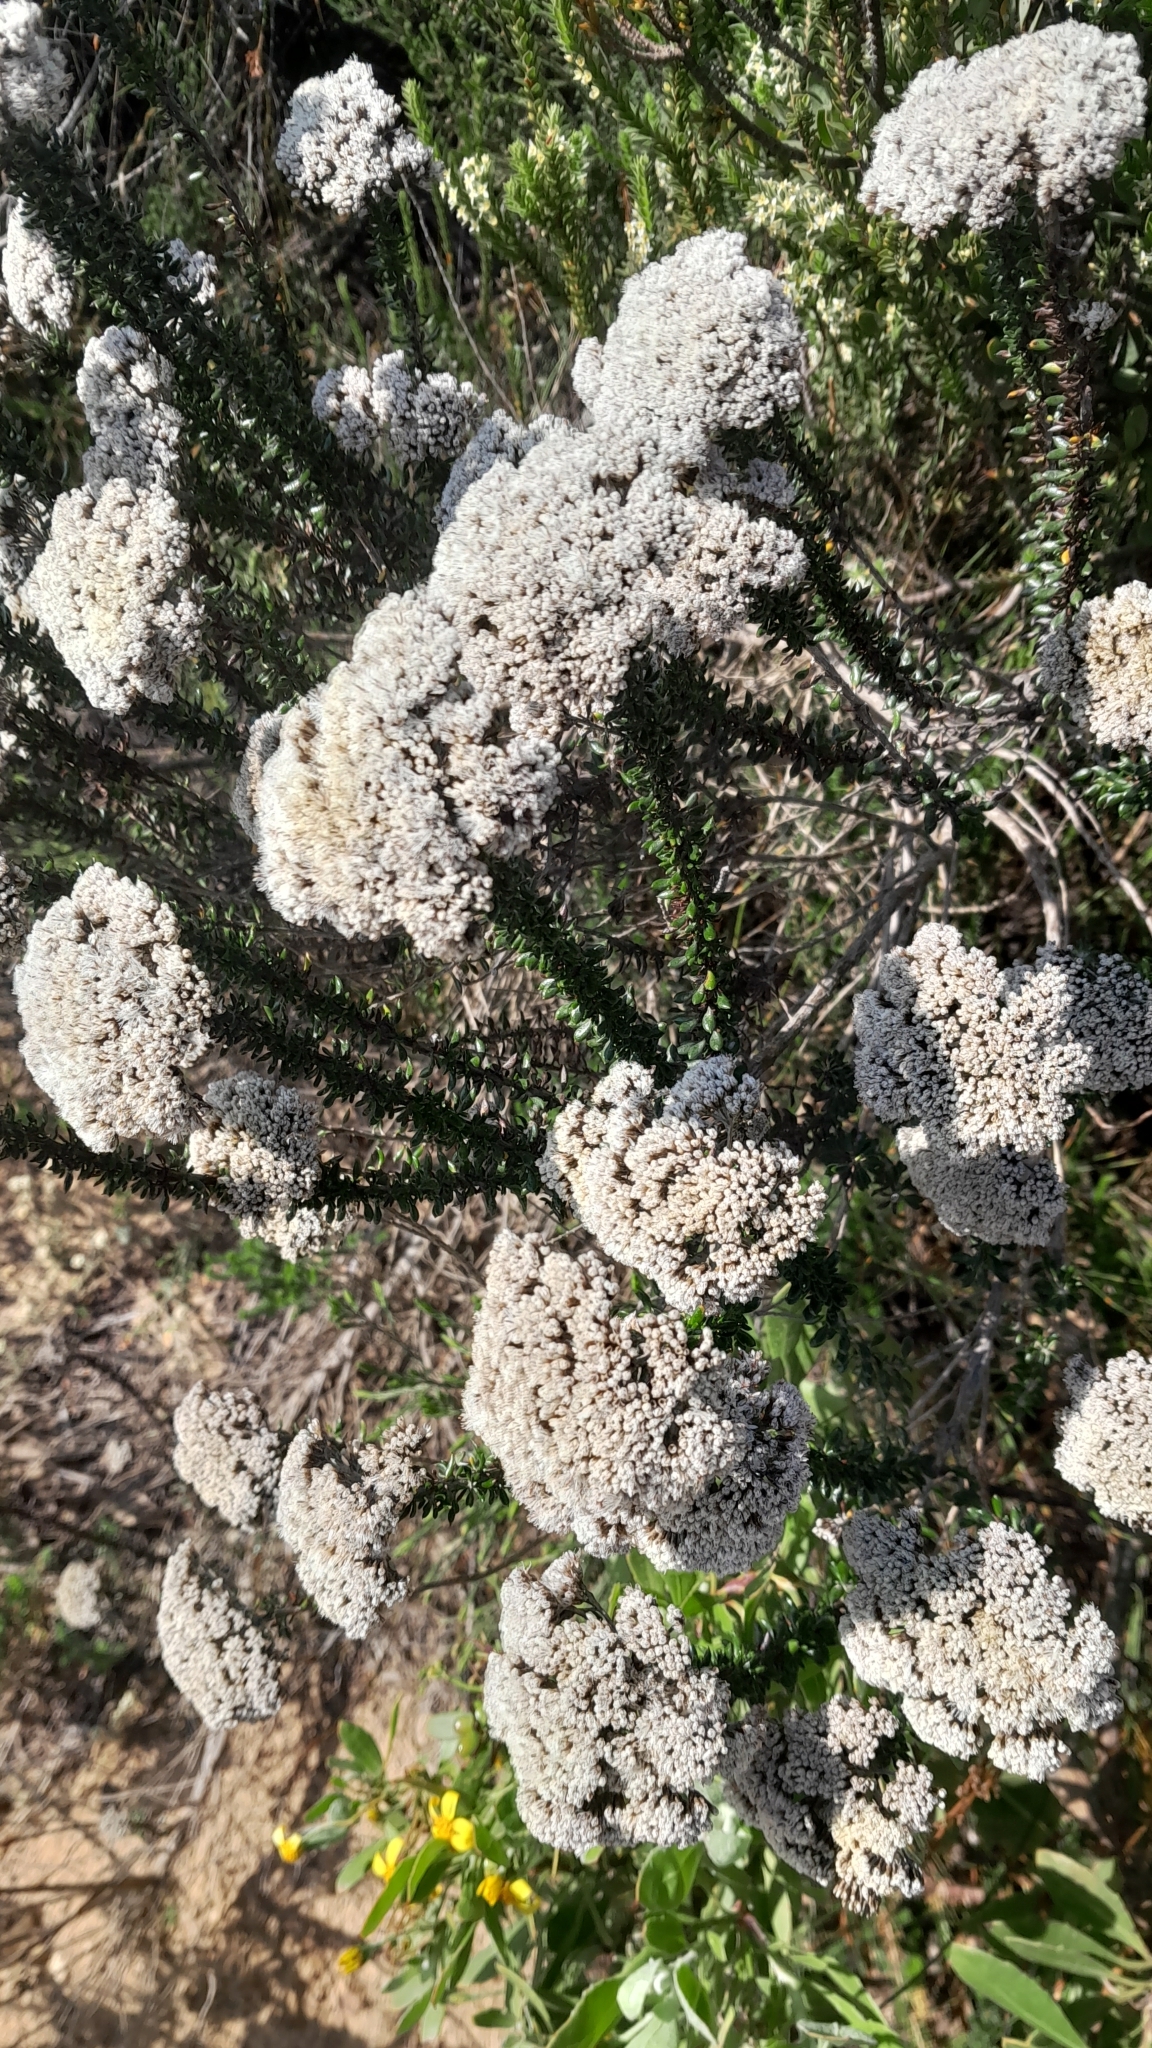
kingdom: Plantae
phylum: Tracheophyta
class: Magnoliopsida
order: Asterales
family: Asteraceae
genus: Metalasia
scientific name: Metalasia densa
